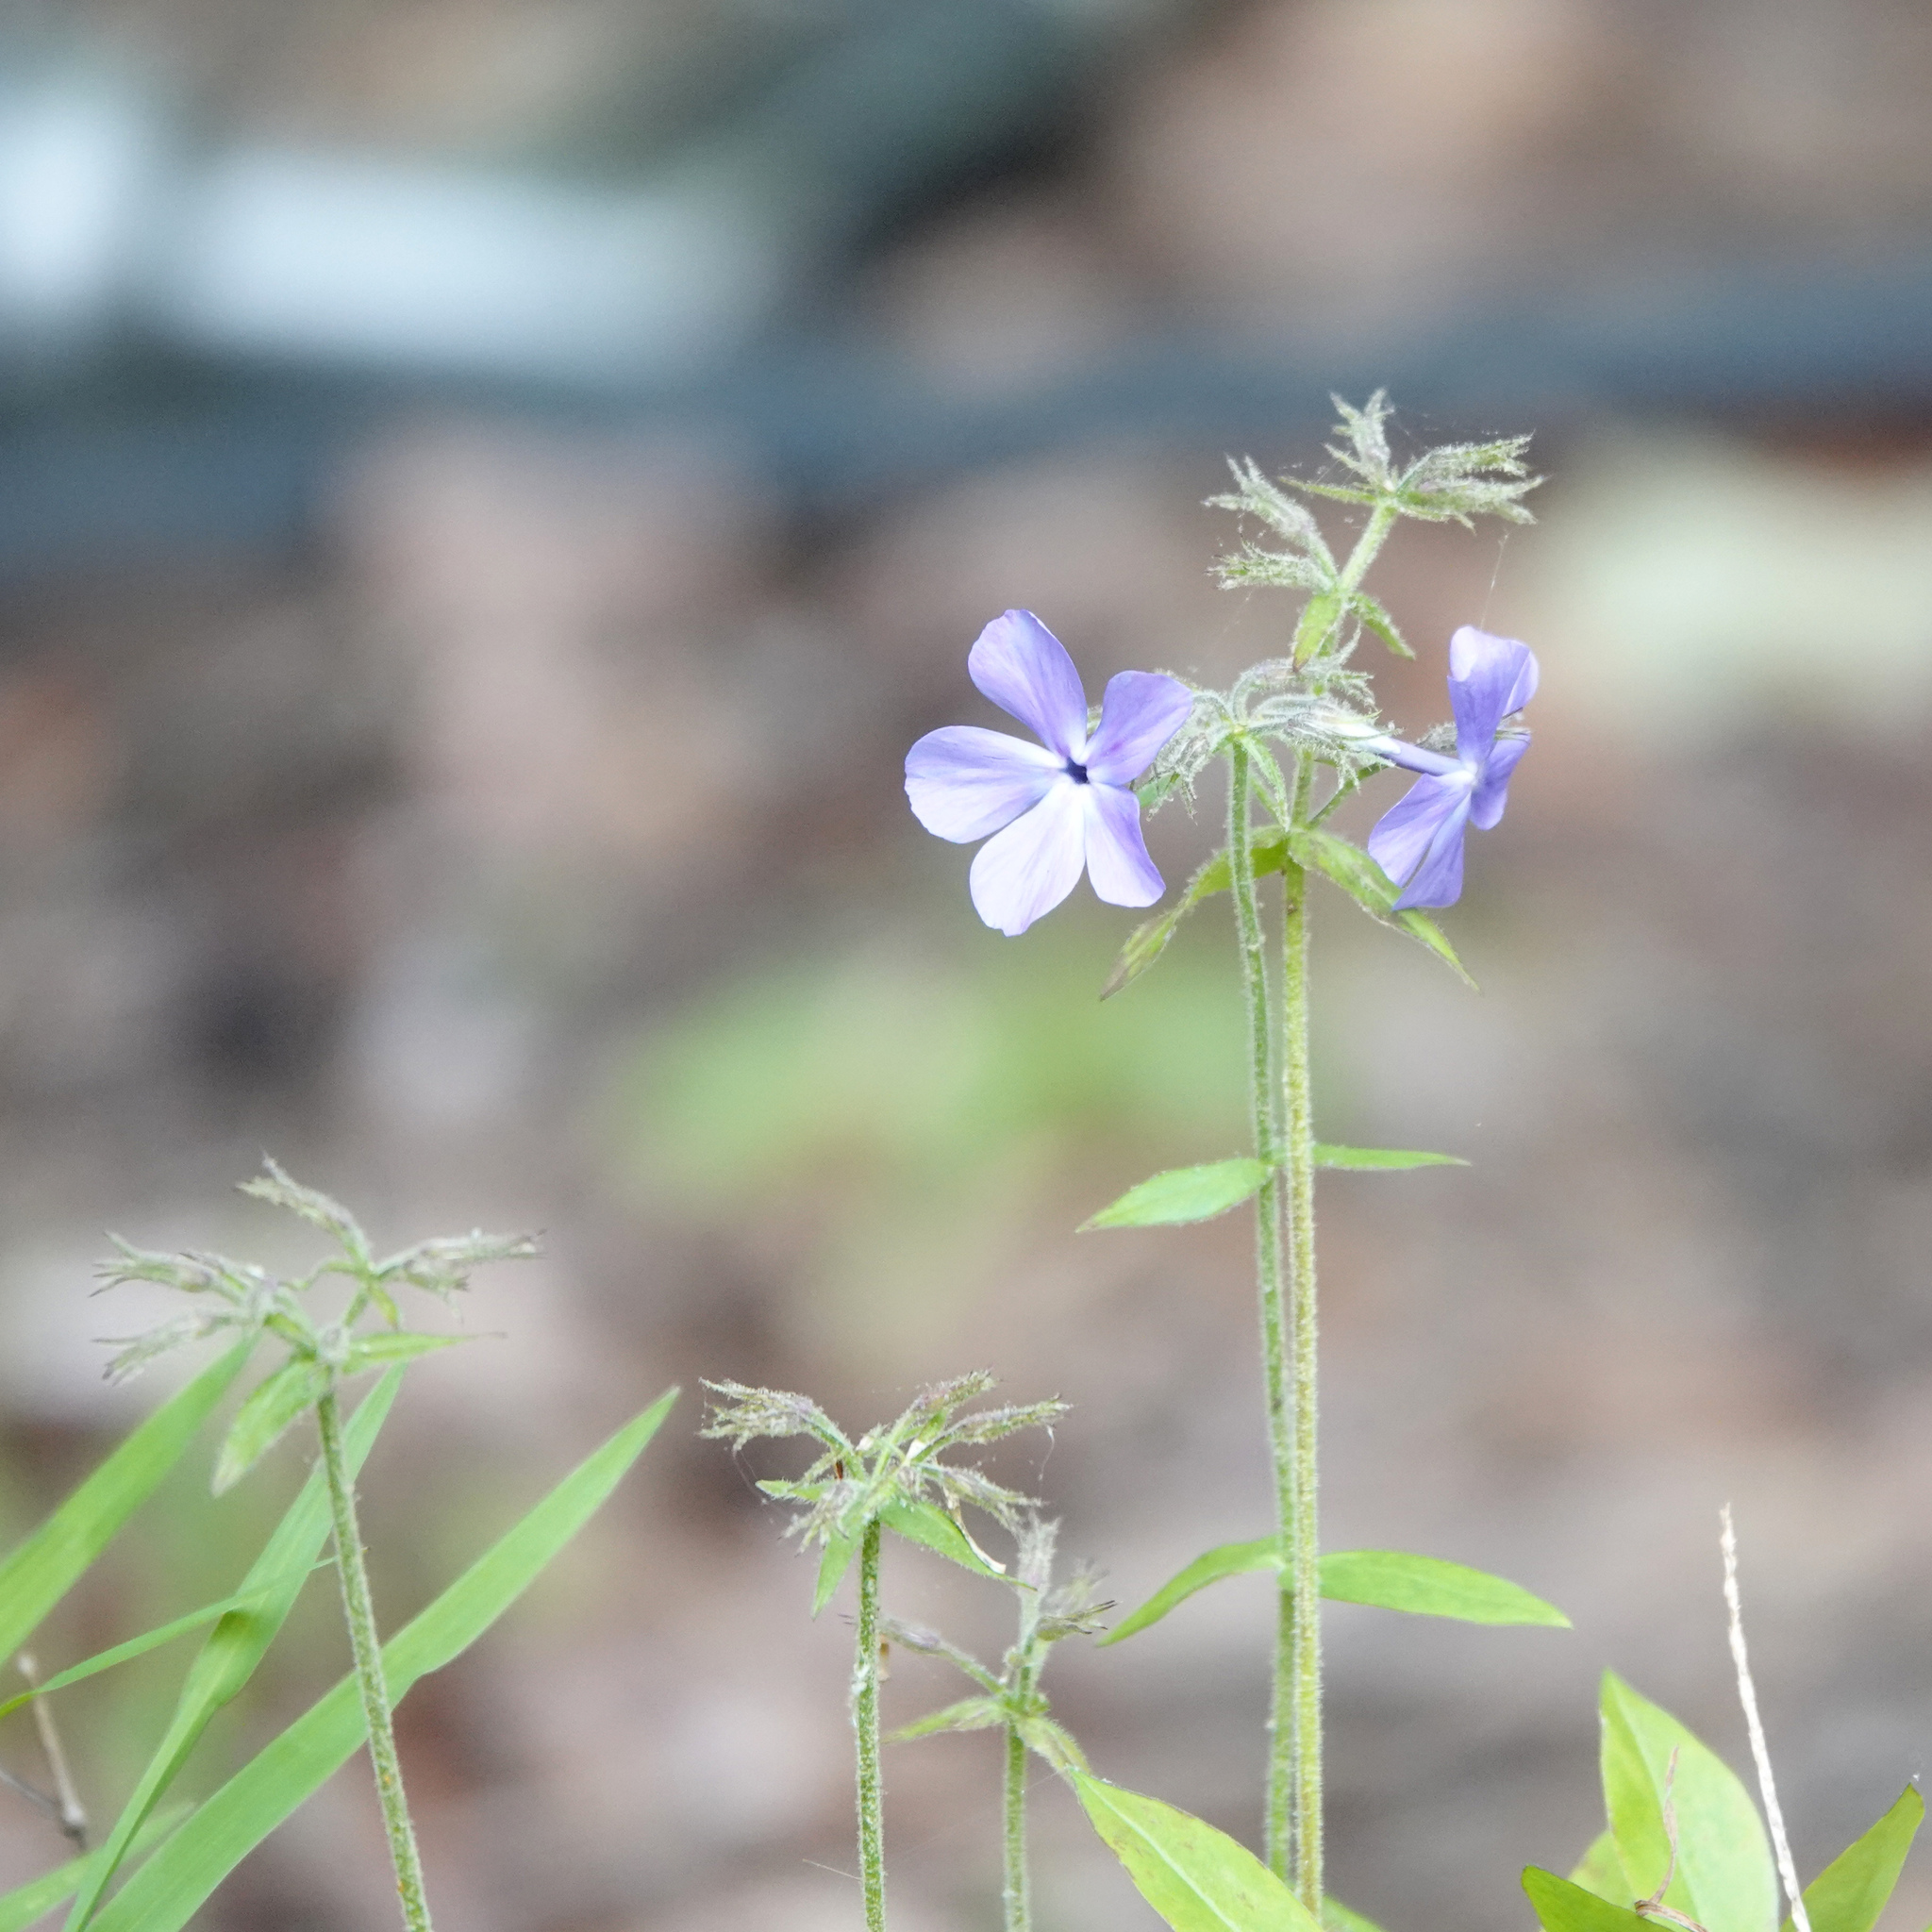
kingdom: Plantae
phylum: Tracheophyta
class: Magnoliopsida
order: Ericales
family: Polemoniaceae
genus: Phlox
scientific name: Phlox divaricata
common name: Blue phlox
